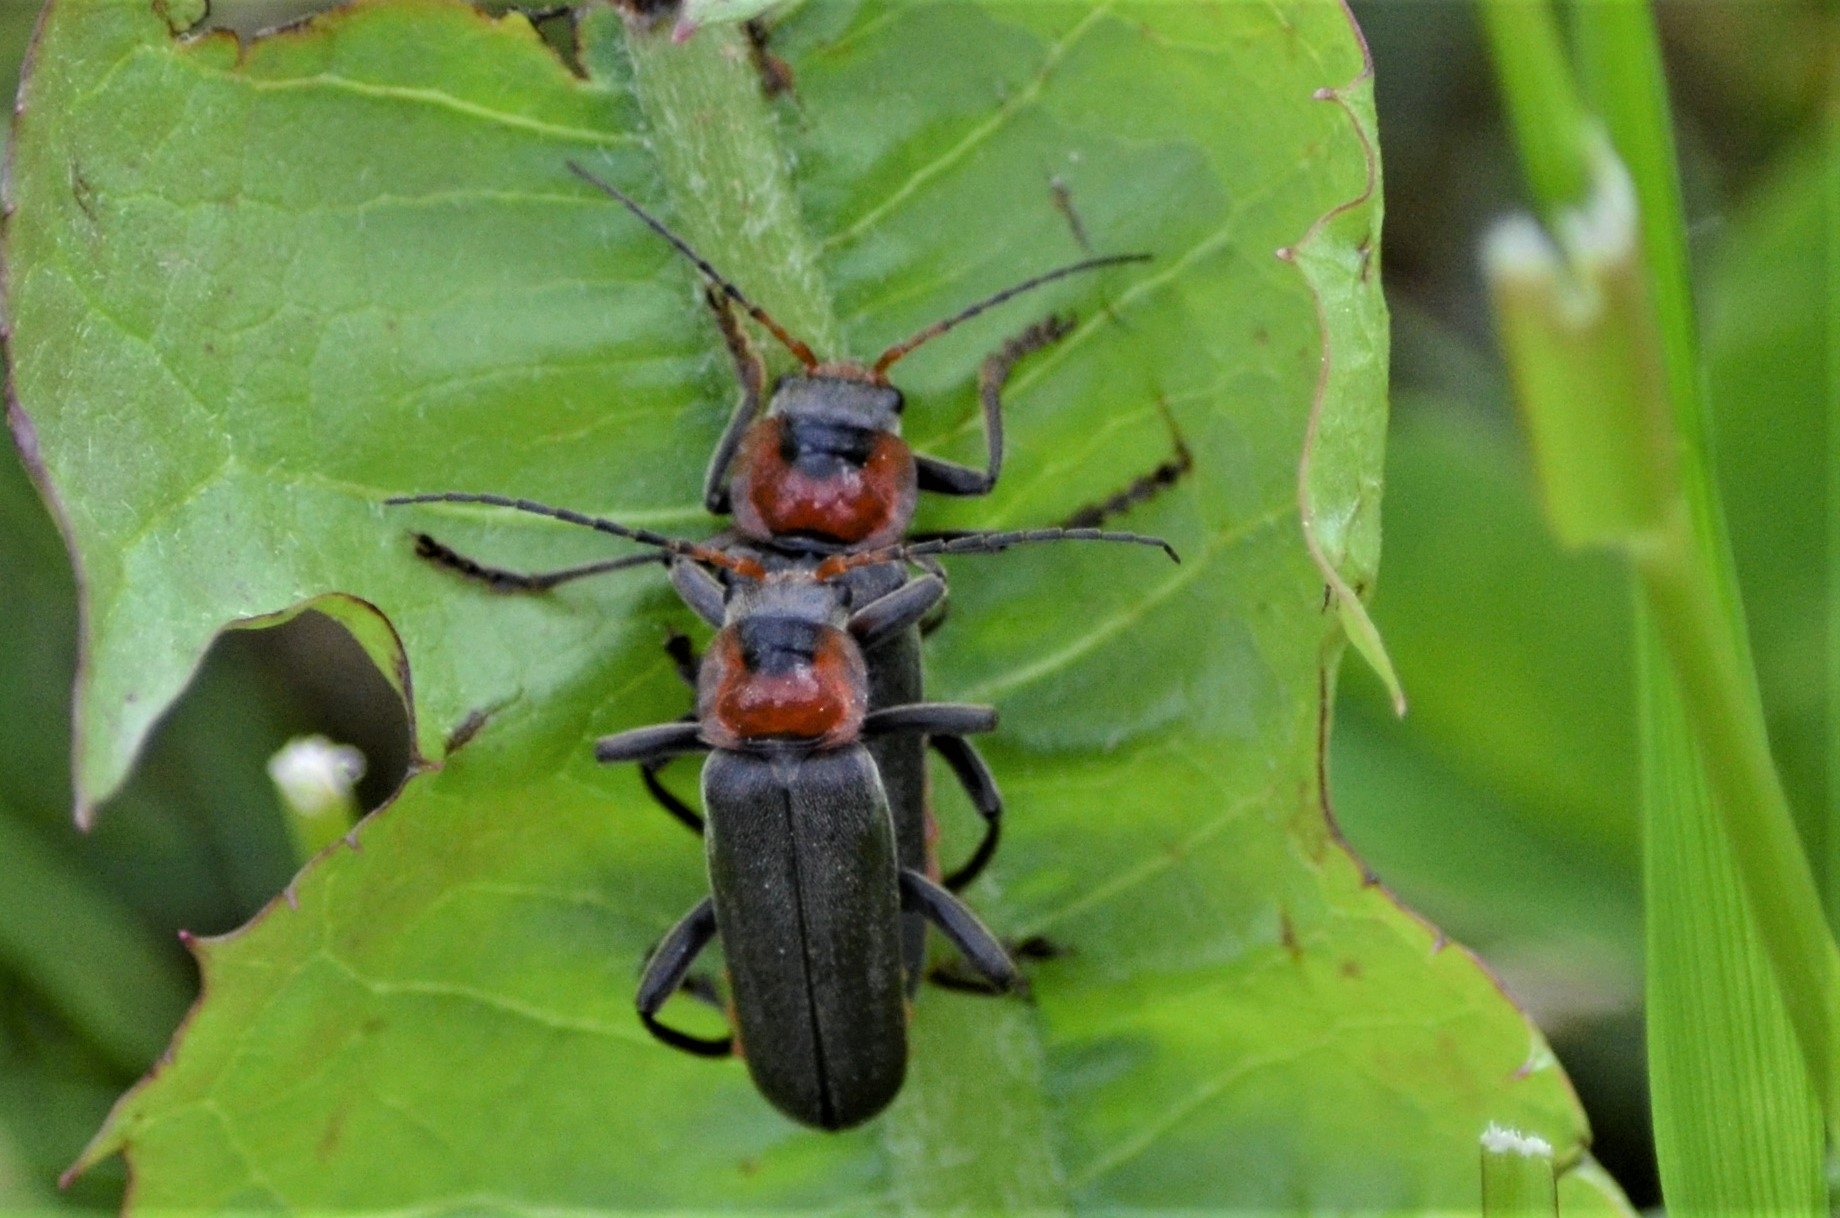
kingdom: Animalia
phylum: Arthropoda
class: Insecta
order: Coleoptera
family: Cantharidae
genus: Cantharis
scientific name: Cantharis fusca
